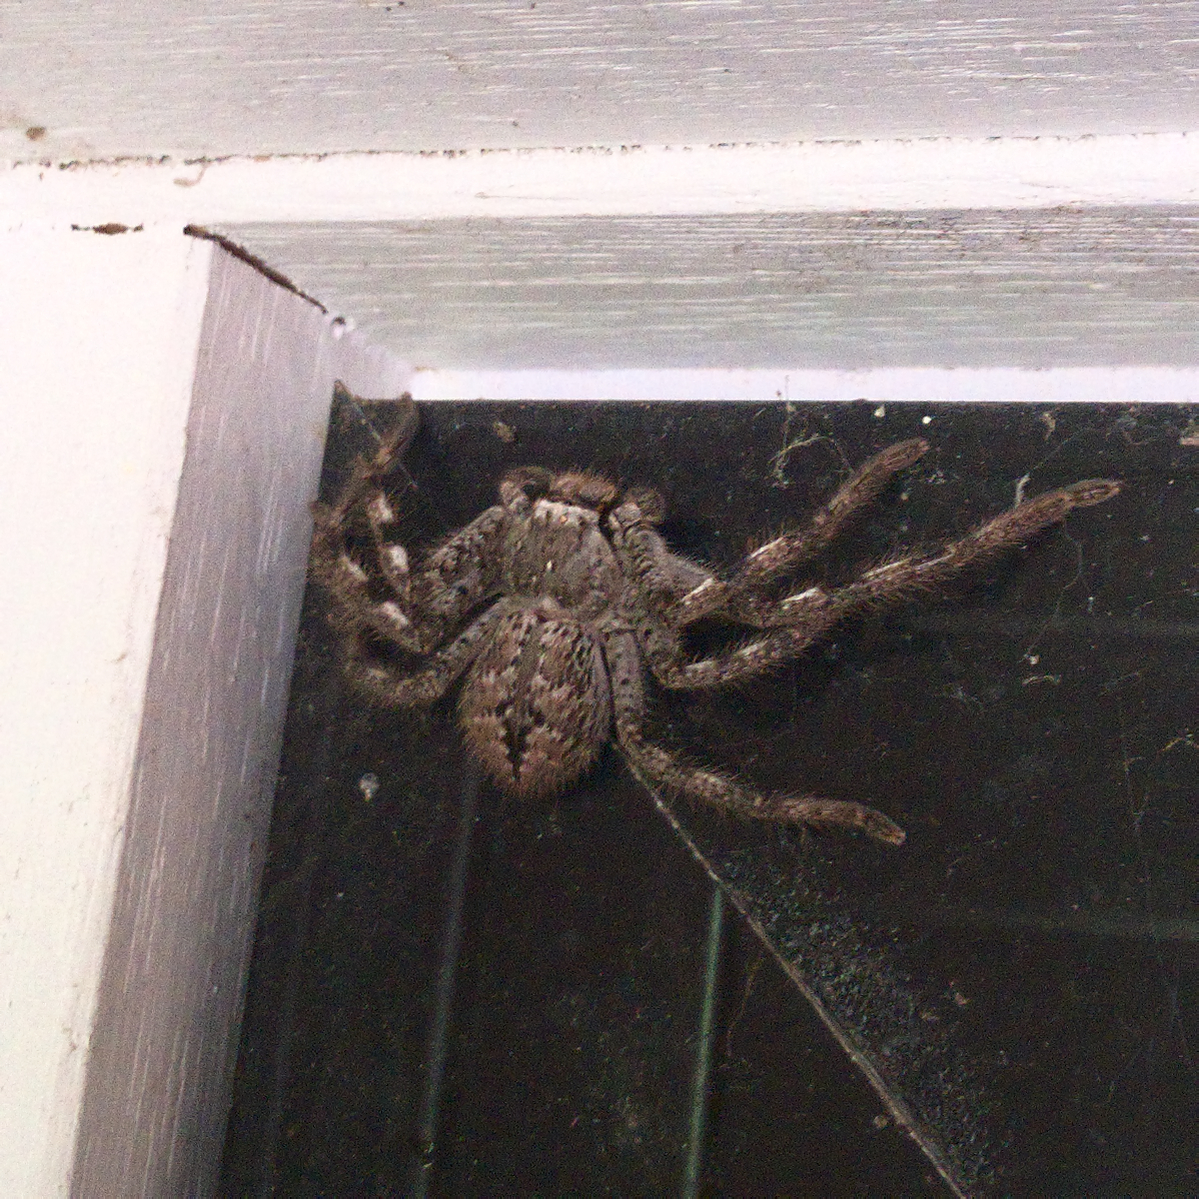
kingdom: Animalia
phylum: Arthropoda
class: Arachnida
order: Araneae
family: Sparassidae
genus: Isopedella
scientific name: Isopedella victorialis
